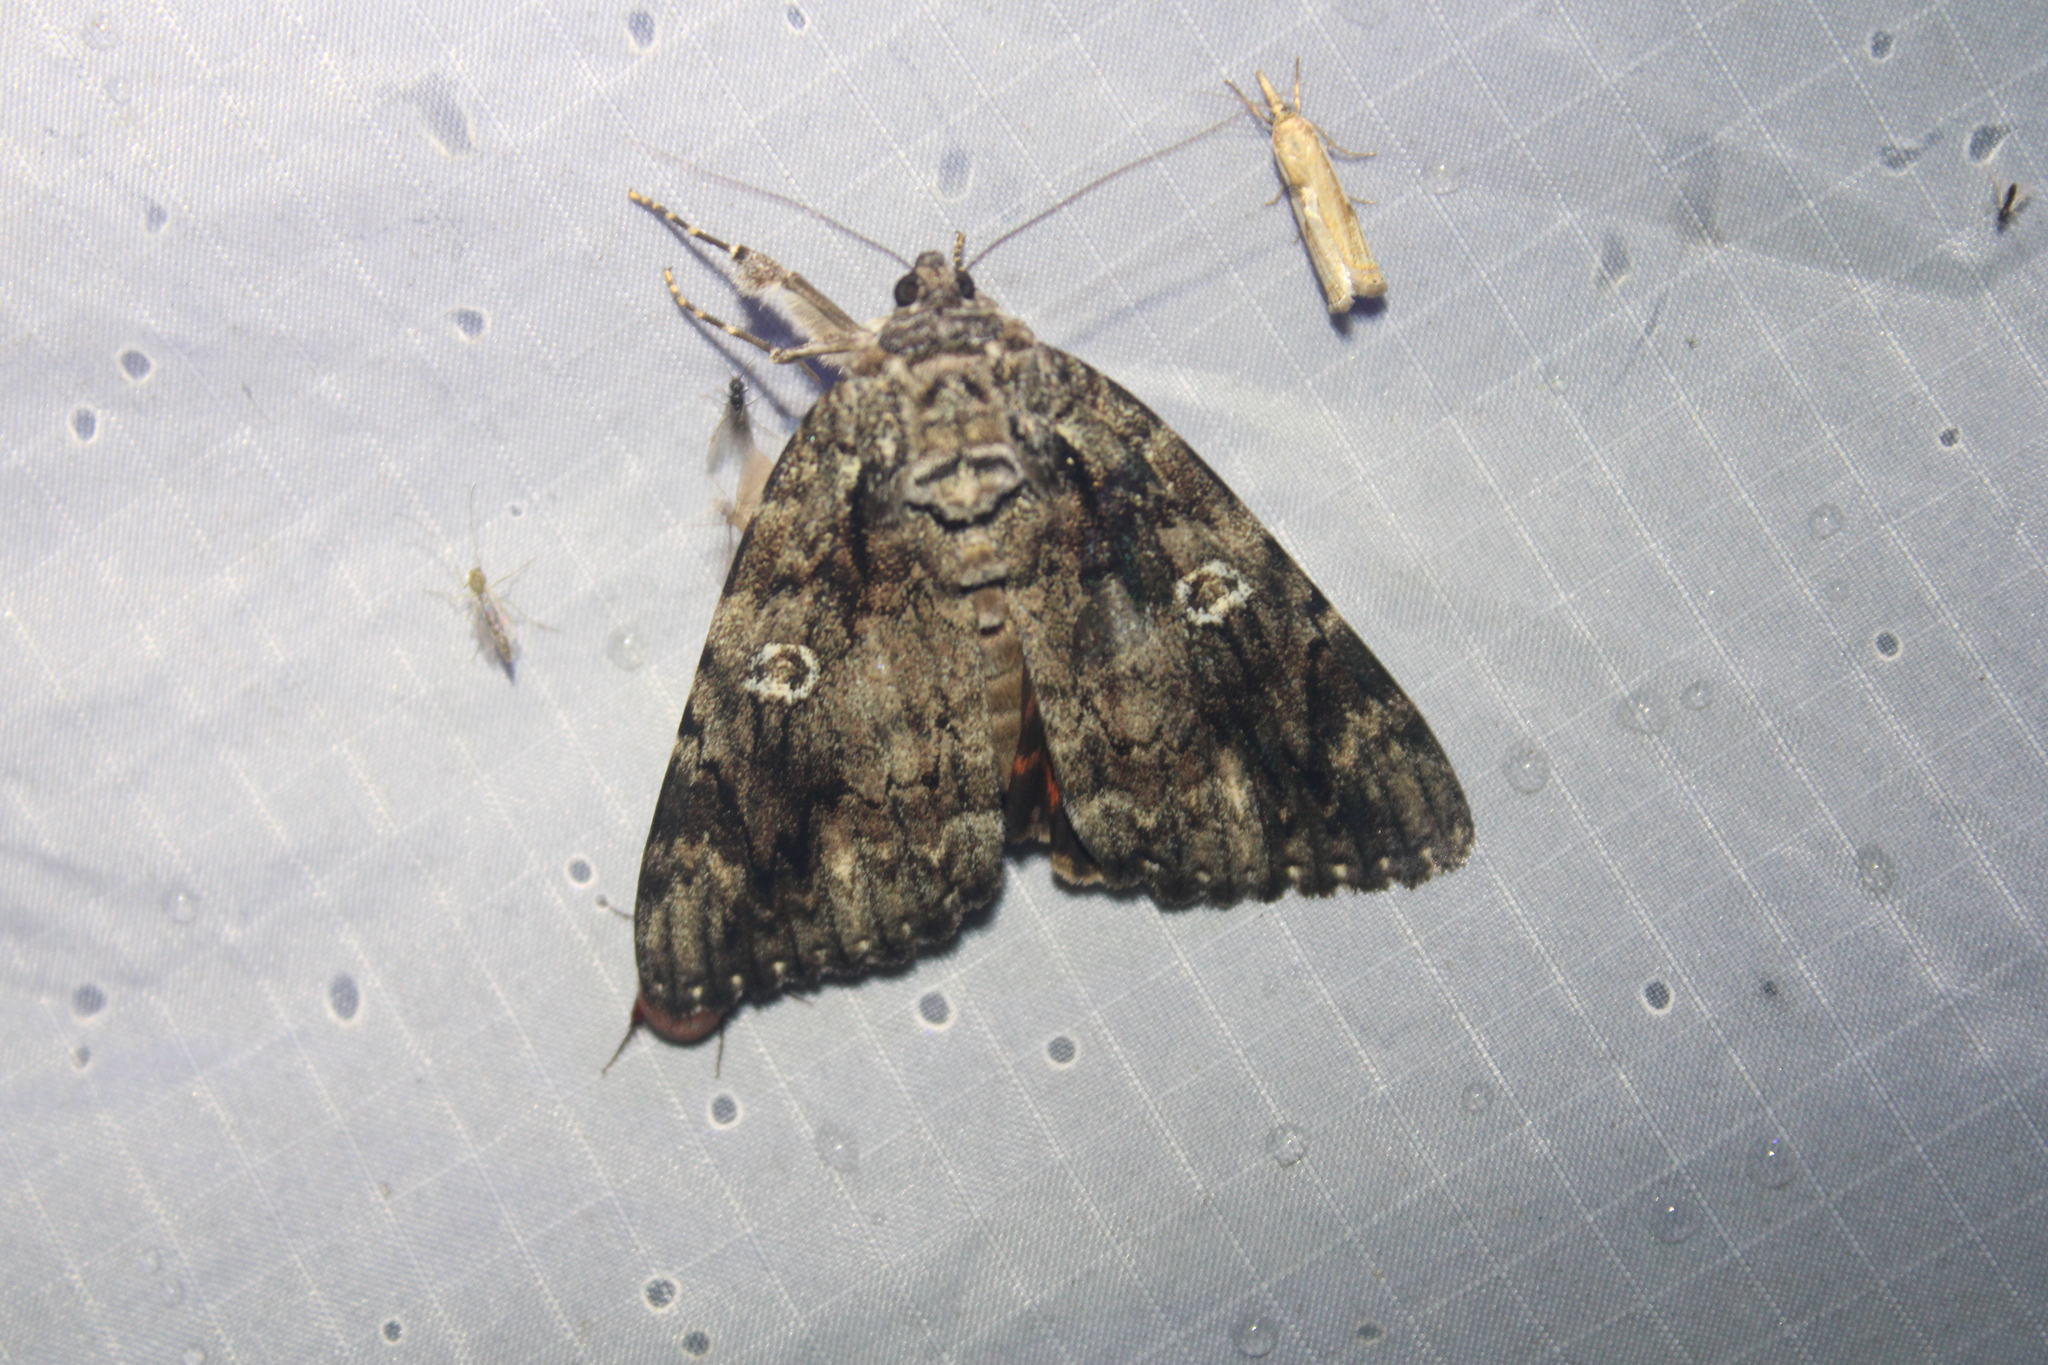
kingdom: Animalia
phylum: Arthropoda
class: Insecta
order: Lepidoptera
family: Erebidae
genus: Catocala
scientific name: Catocala ilia
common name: Ilia underwing
